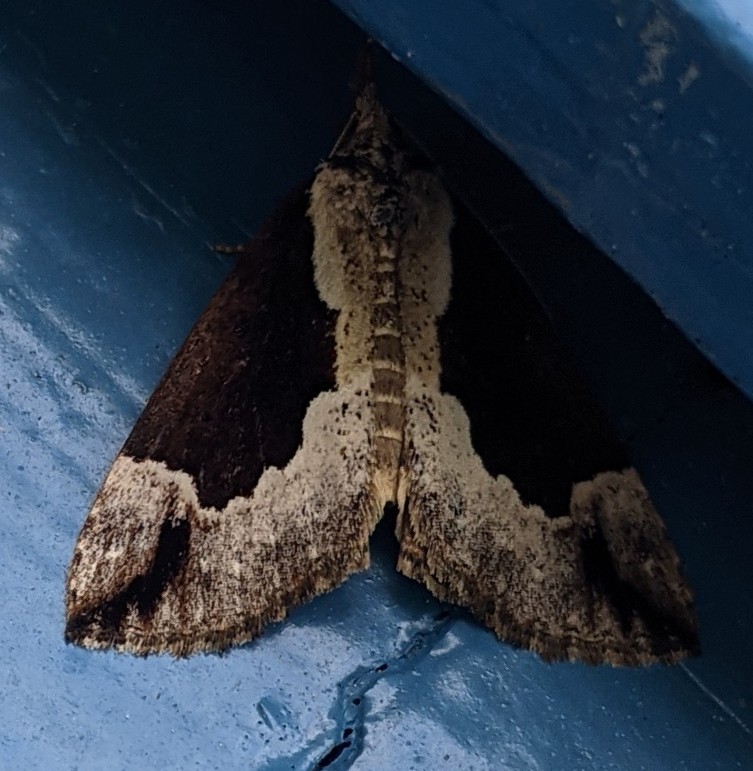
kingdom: Animalia
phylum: Arthropoda
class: Insecta
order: Lepidoptera
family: Erebidae
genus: Hypena
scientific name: Hypena baltimoralis
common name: Baltimore snout
